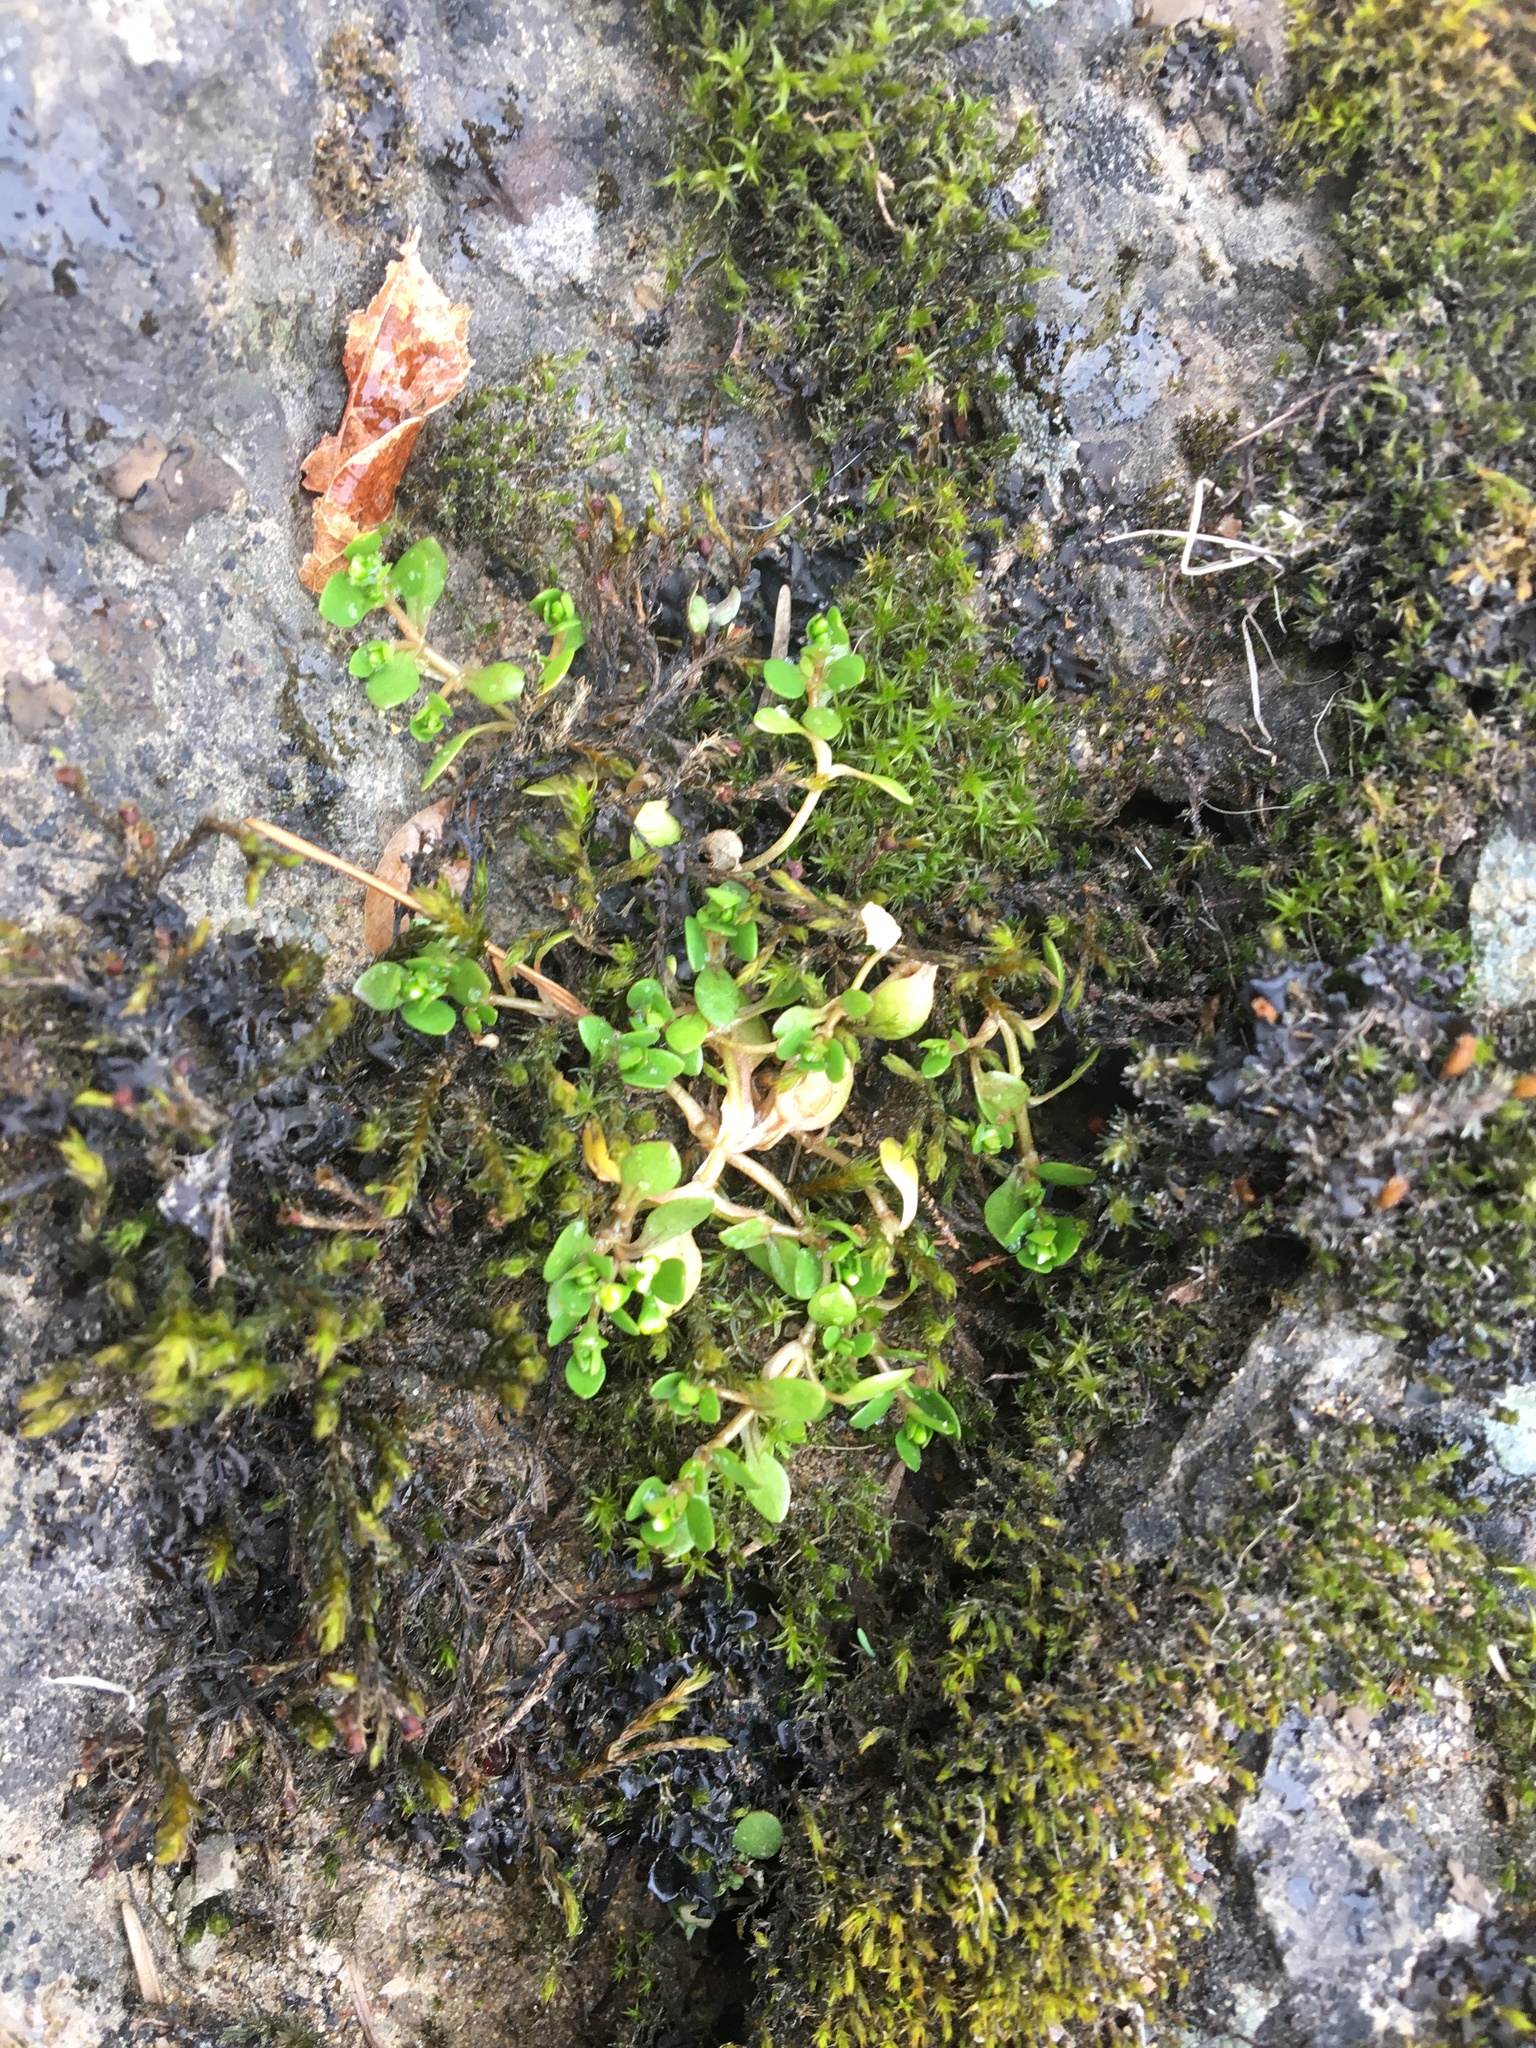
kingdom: Plantae
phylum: Tracheophyta
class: Magnoliopsida
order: Caryophyllales
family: Montiaceae
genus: Montia
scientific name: Montia fontana
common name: Blinks
